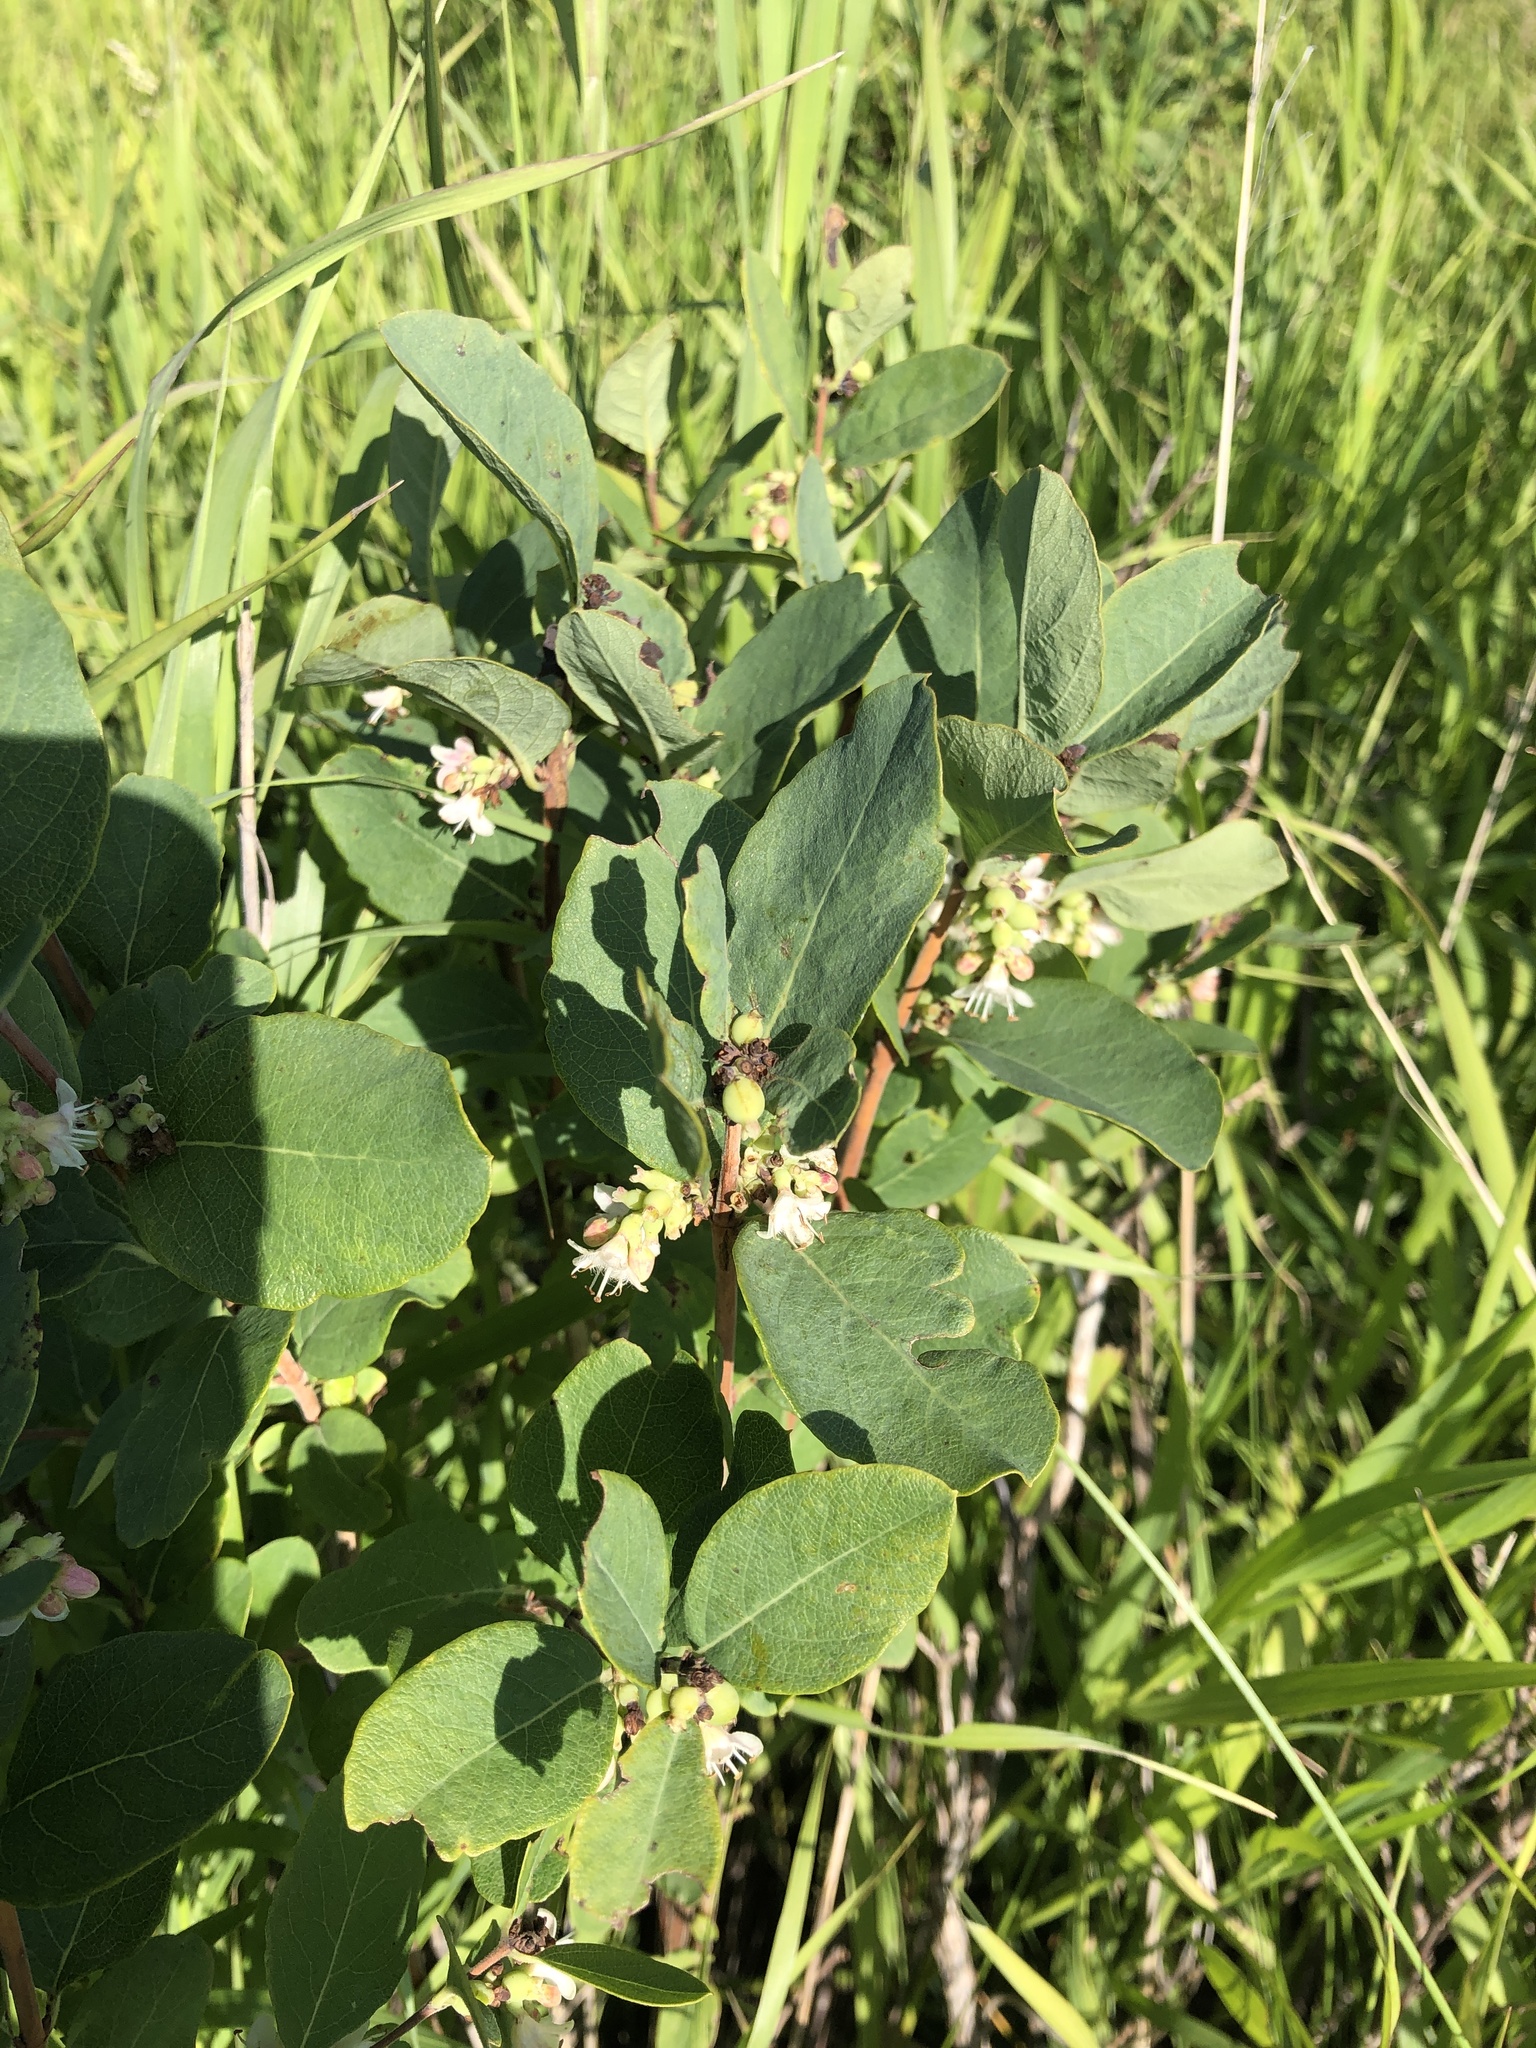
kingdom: Plantae
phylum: Tracheophyta
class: Magnoliopsida
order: Dipsacales
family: Caprifoliaceae
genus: Symphoricarpos
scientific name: Symphoricarpos occidentalis
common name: Wolfberry
